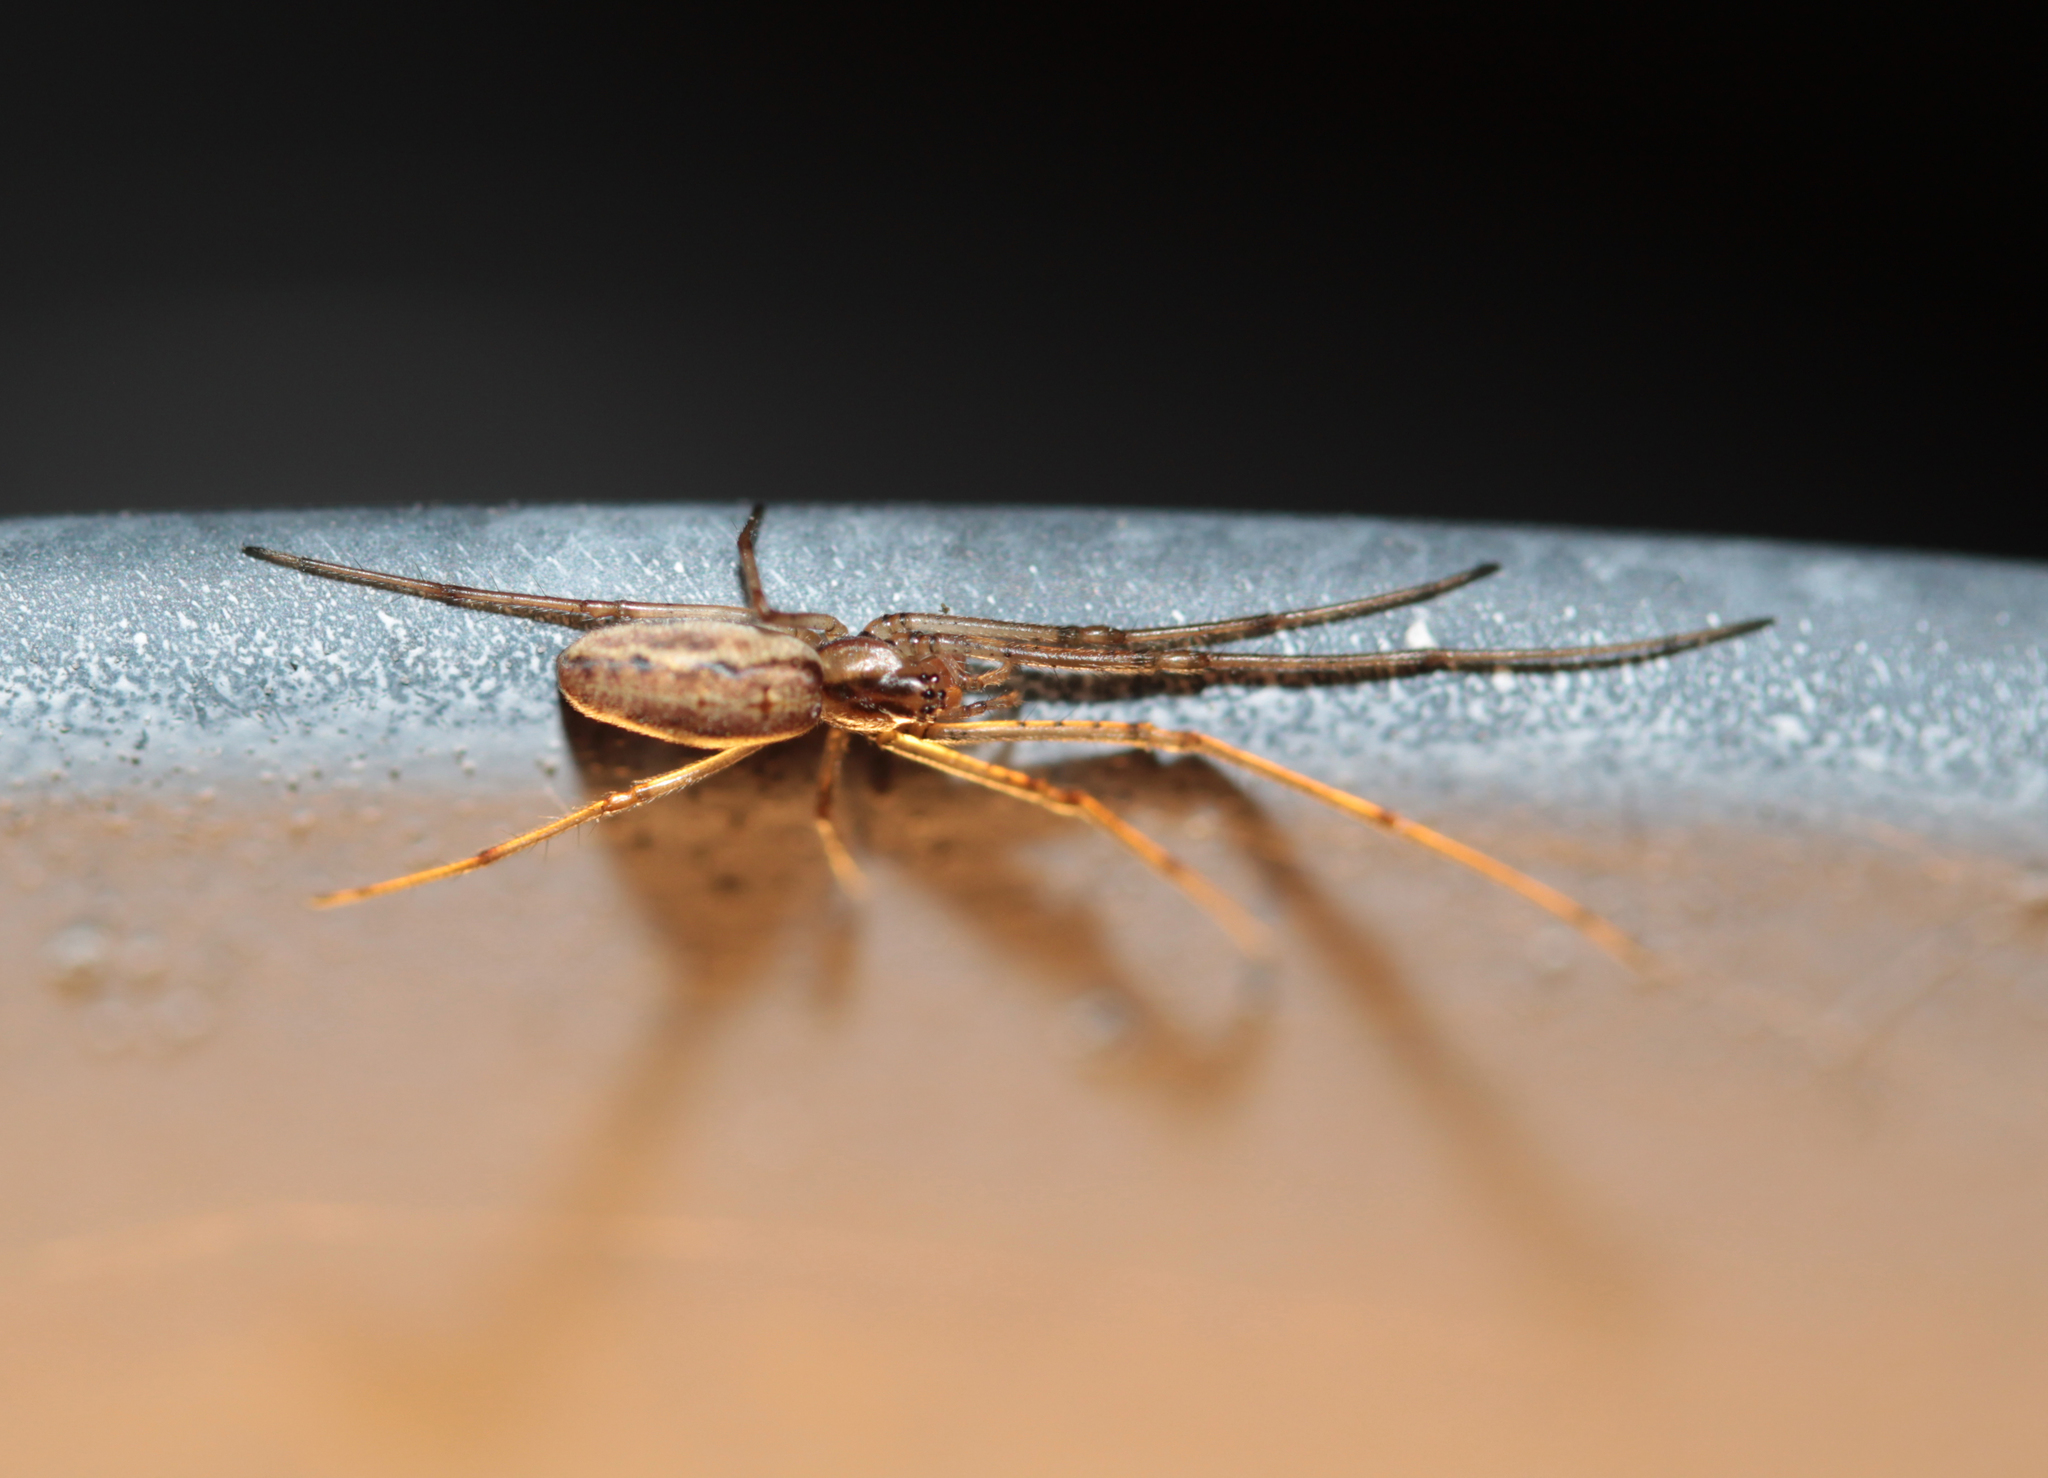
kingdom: Animalia
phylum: Arthropoda
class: Arachnida
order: Araneae
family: Tetragnathidae
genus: Tetragnatha
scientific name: Tetragnatha
